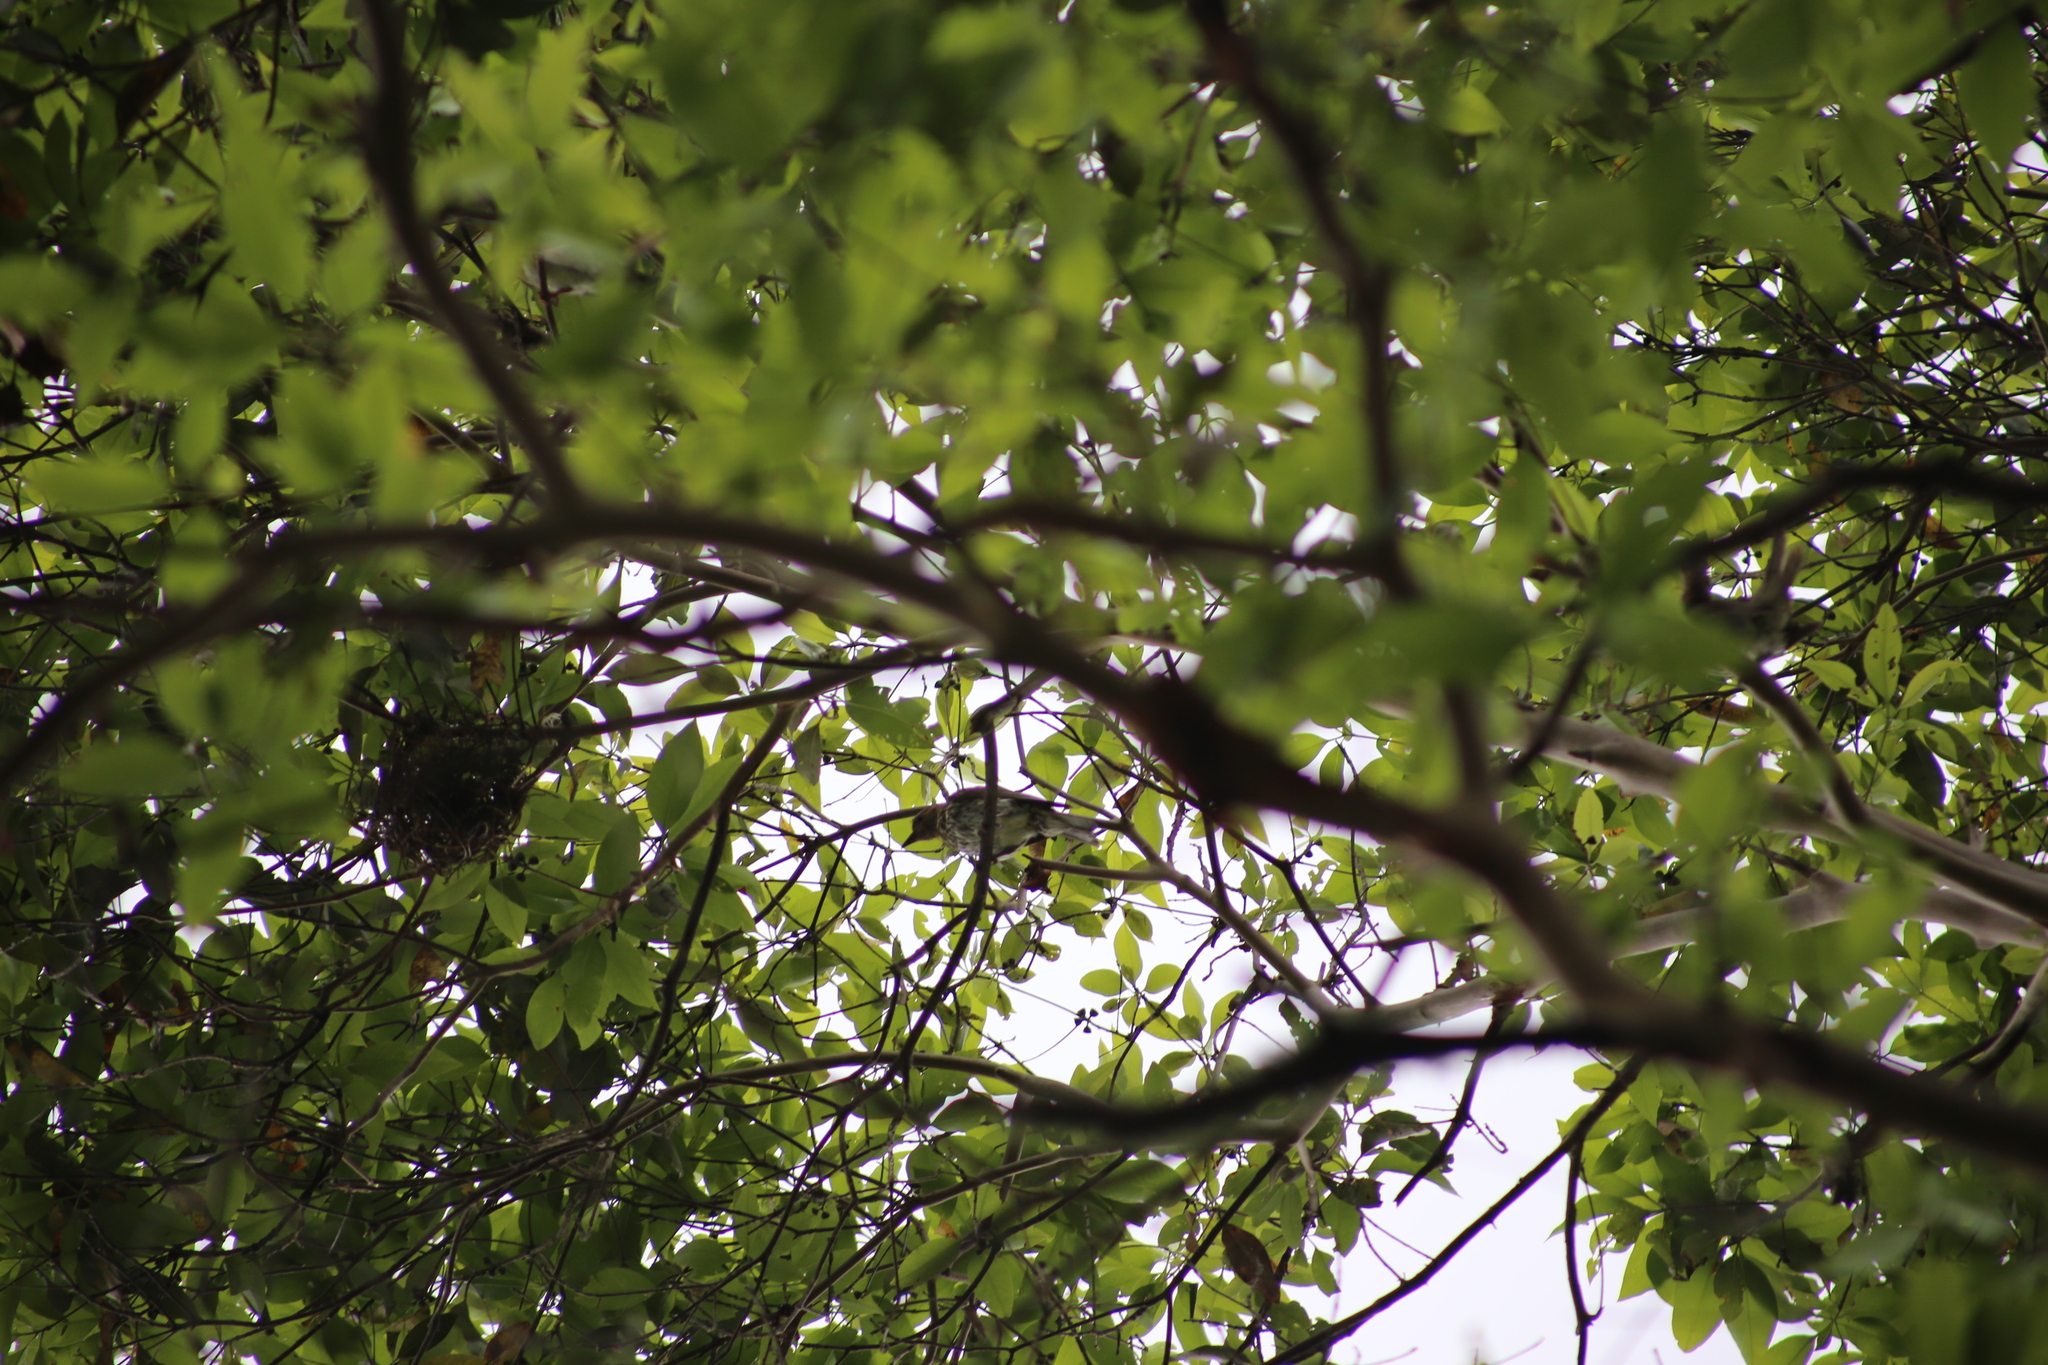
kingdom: Animalia
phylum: Chordata
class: Aves
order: Passeriformes
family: Oriolidae
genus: Sphecotheres
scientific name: Sphecotheres vieilloti
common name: Australasian figbird
